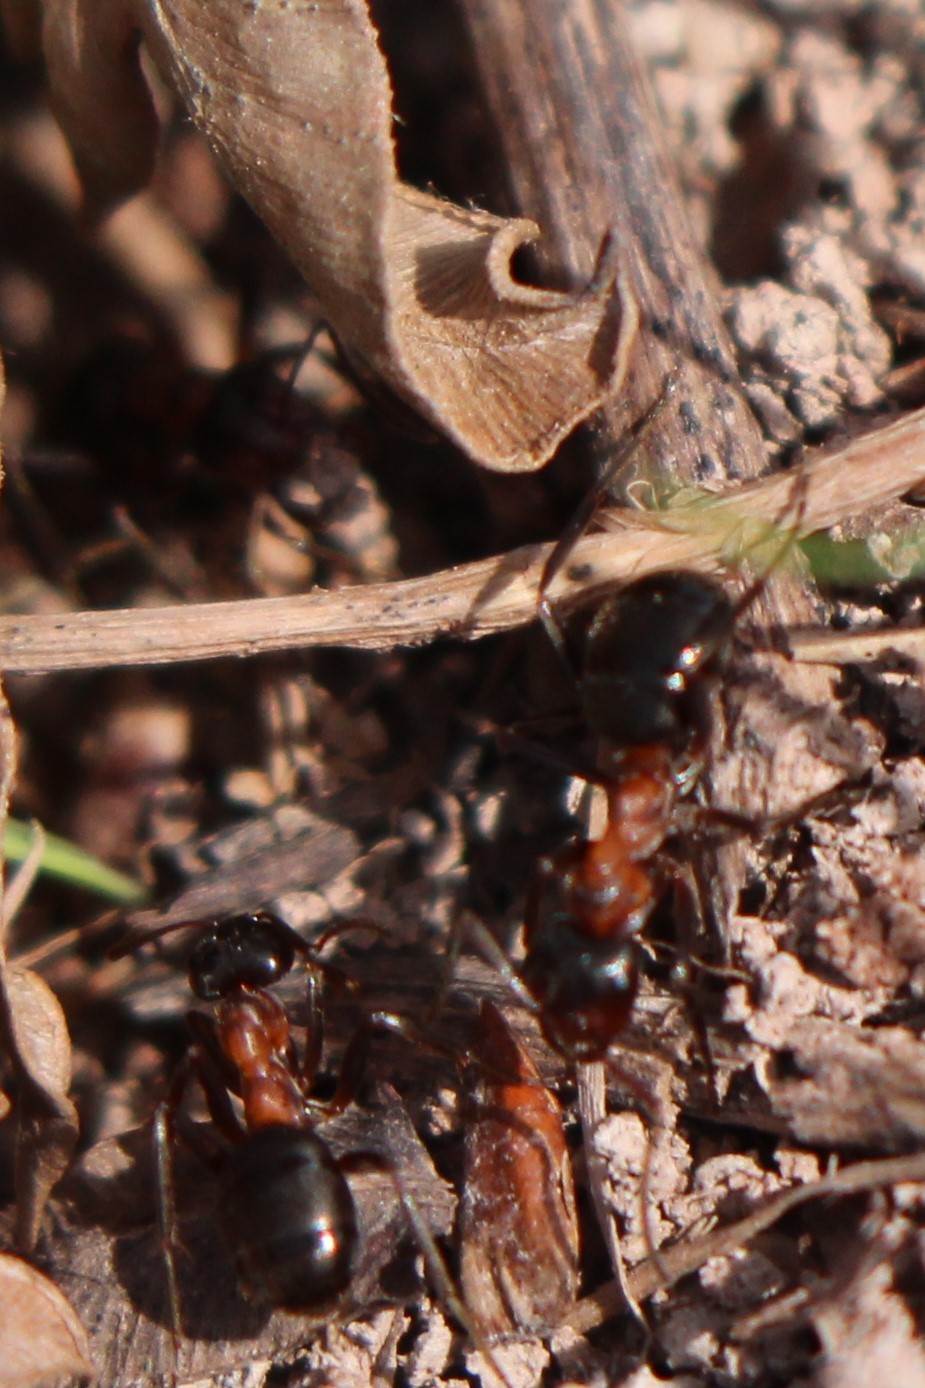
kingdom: Animalia
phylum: Arthropoda
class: Insecta
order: Hymenoptera
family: Formicidae
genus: Formica
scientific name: Formica ulkei
